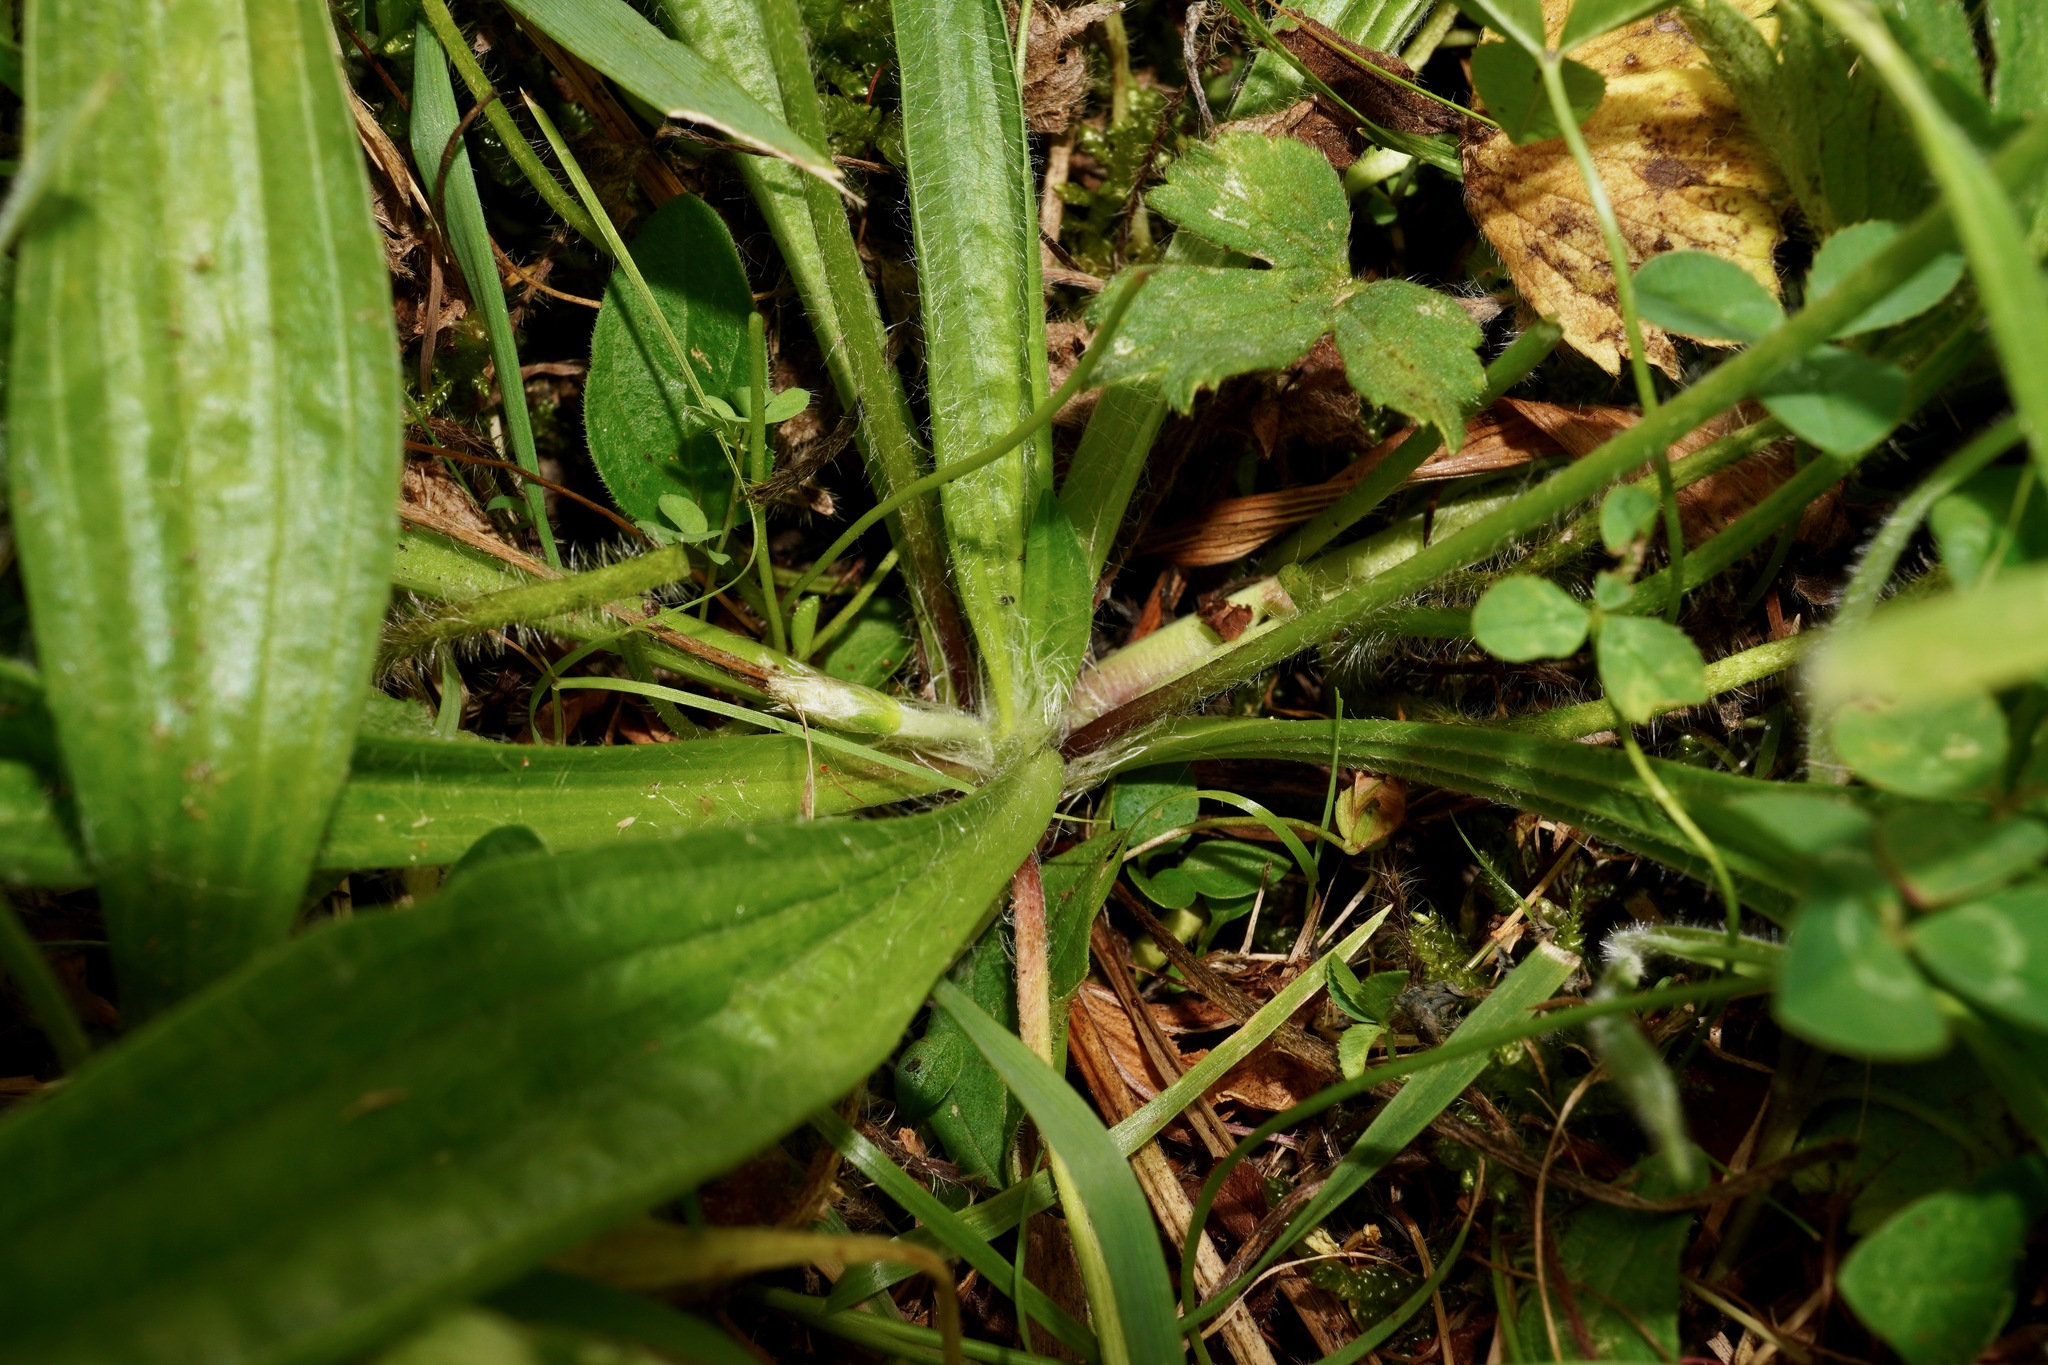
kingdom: Plantae
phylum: Tracheophyta
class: Magnoliopsida
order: Lamiales
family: Plantaginaceae
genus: Plantago
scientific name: Plantago lanceolata
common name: Ribwort plantain
